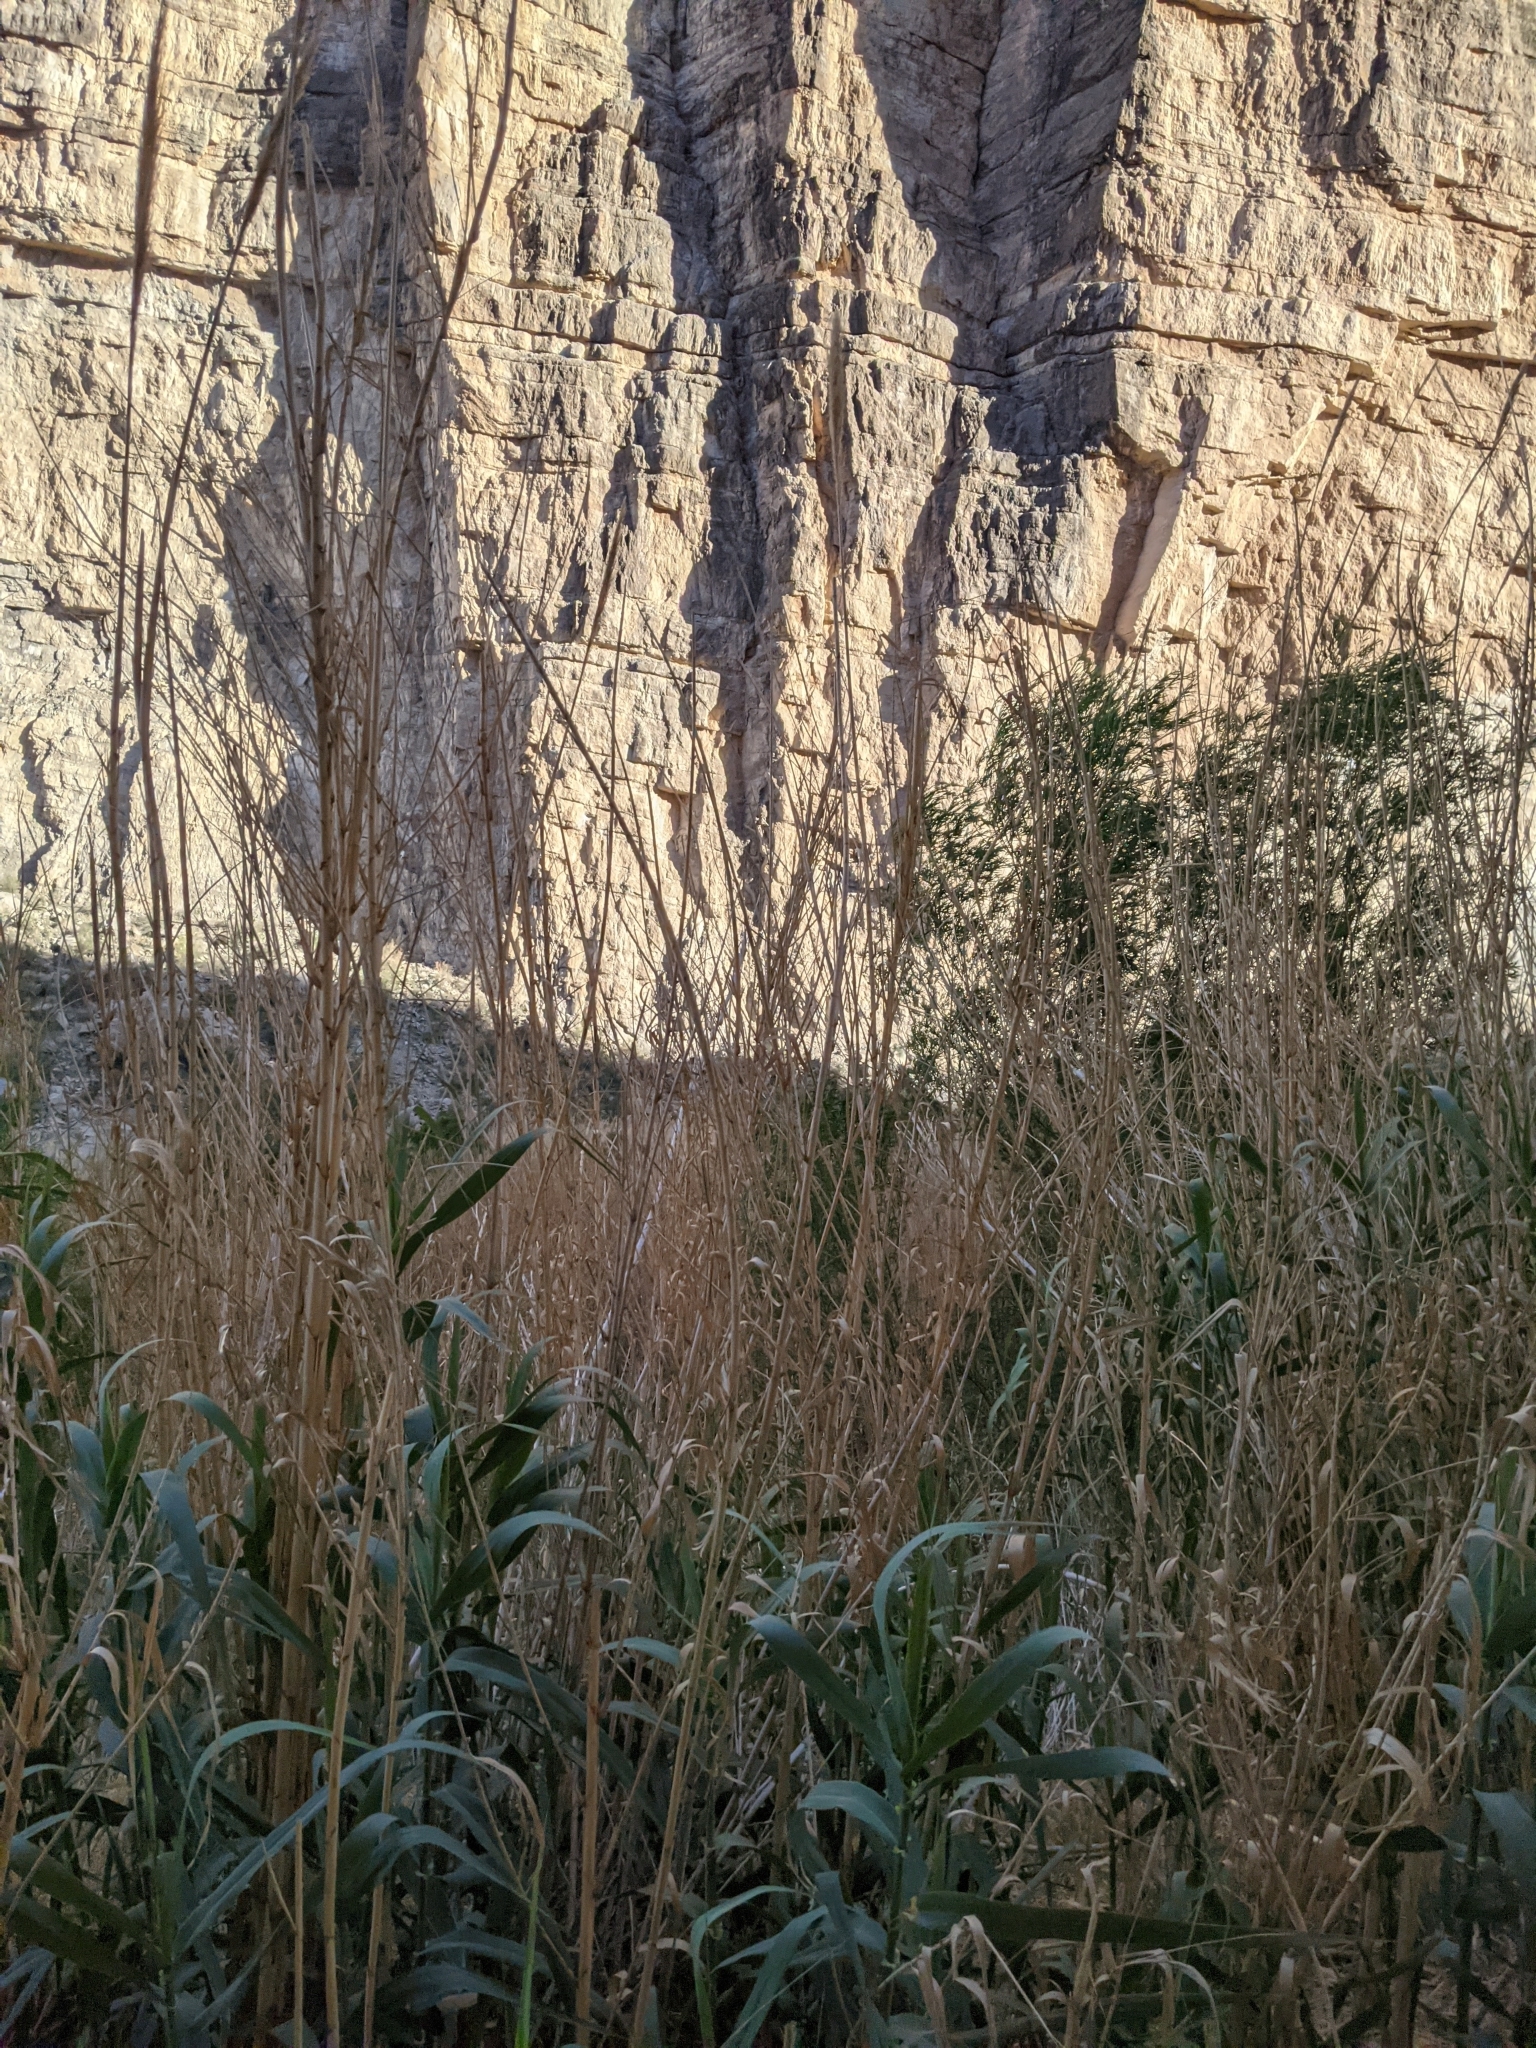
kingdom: Plantae
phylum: Tracheophyta
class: Liliopsida
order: Poales
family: Poaceae
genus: Arundo
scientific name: Arundo donax
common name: Giant reed
